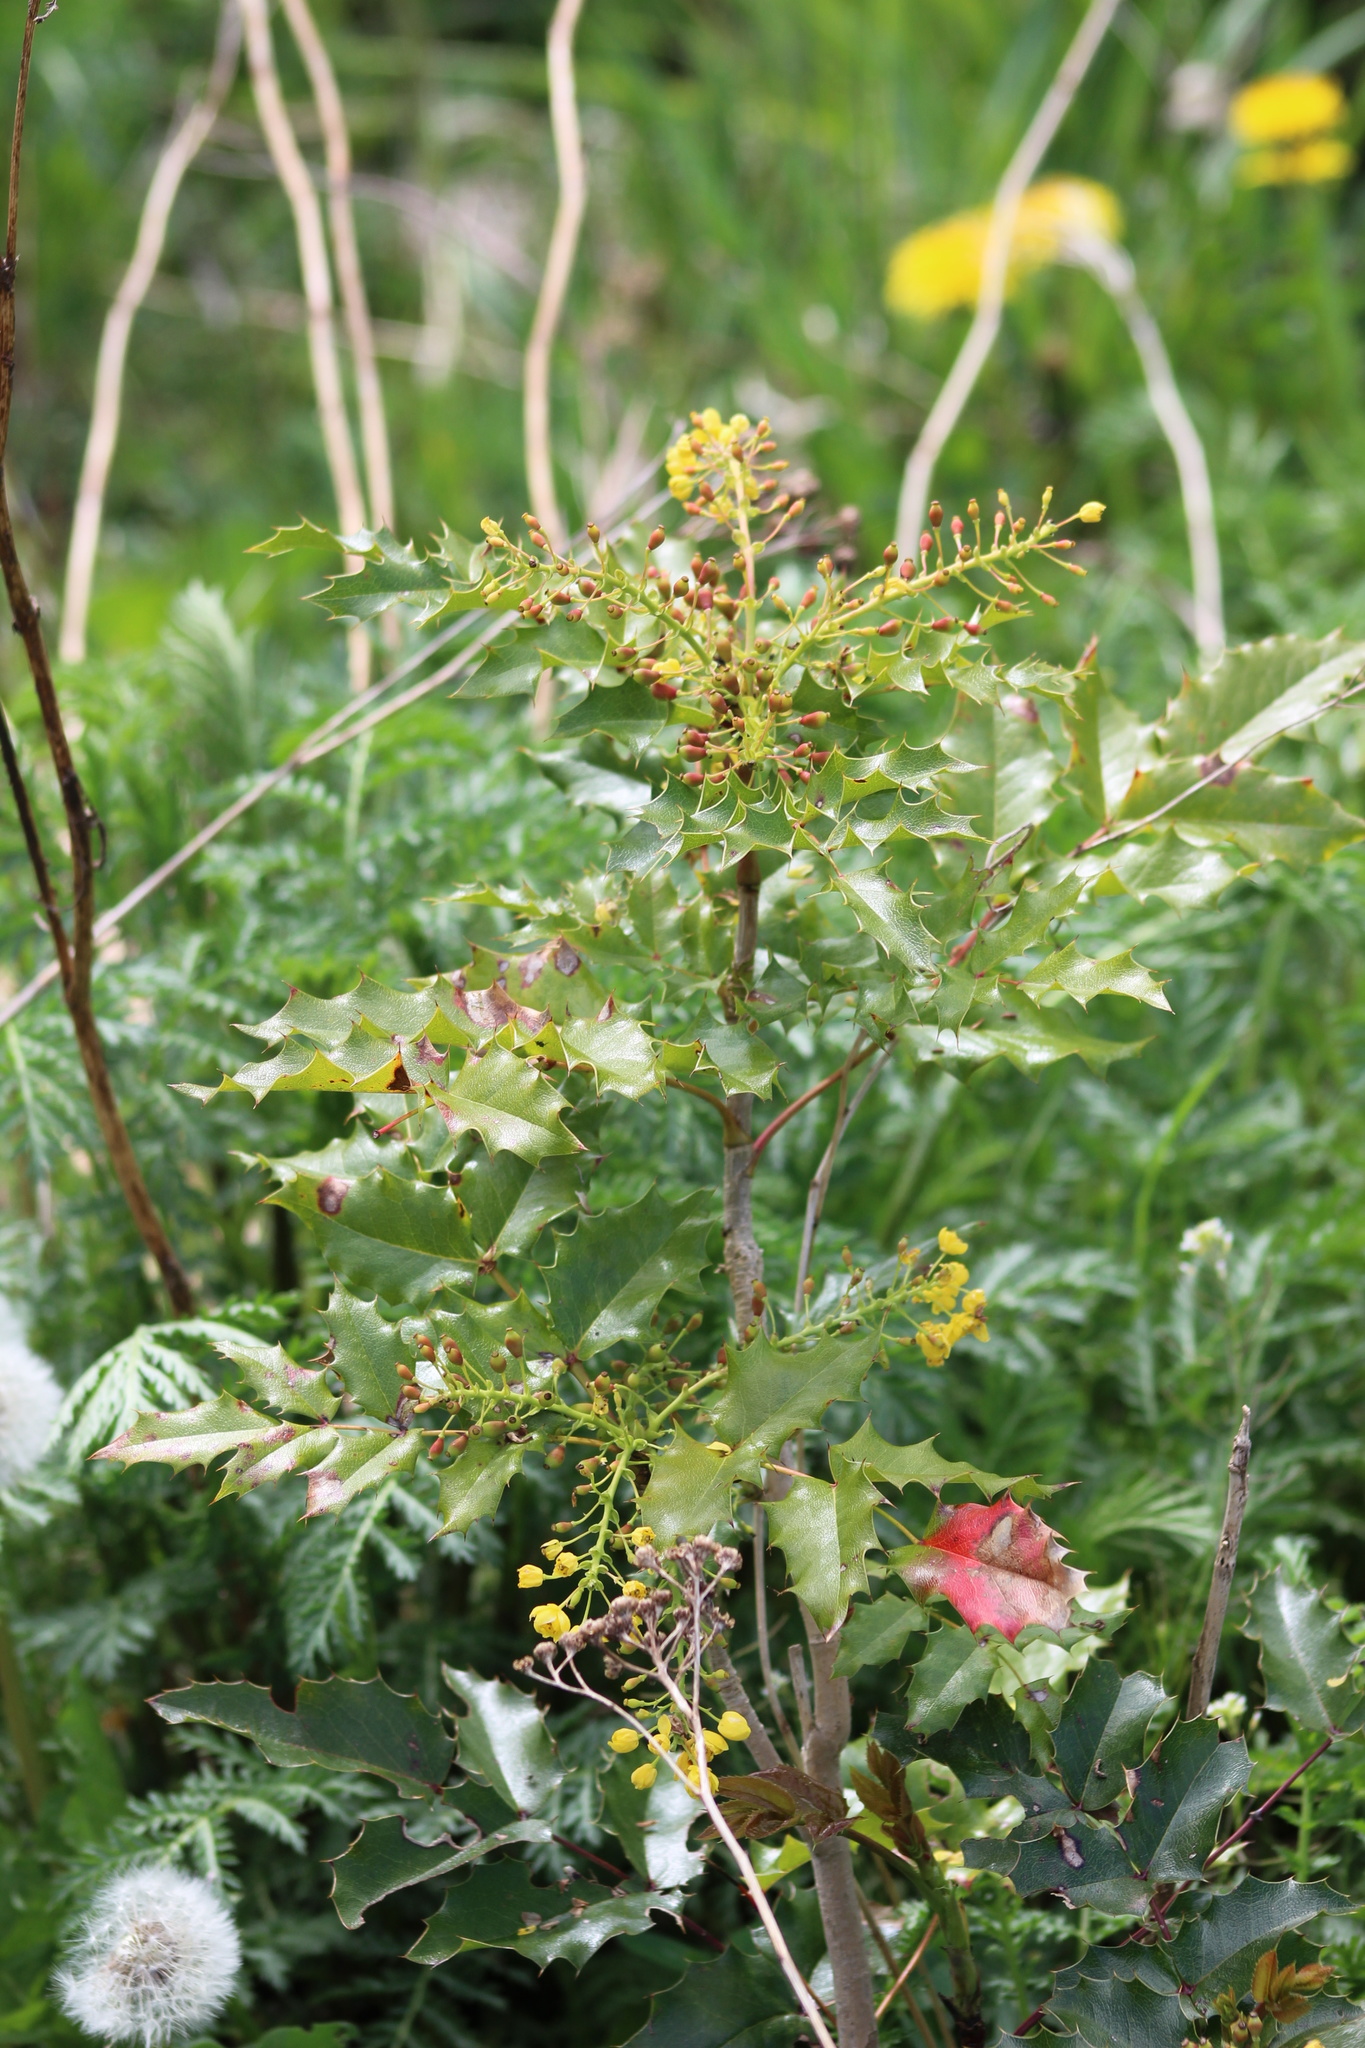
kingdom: Plantae
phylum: Tracheophyta
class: Magnoliopsida
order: Ranunculales
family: Berberidaceae
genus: Mahonia
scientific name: Mahonia aquifolium
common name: Oregon-grape
